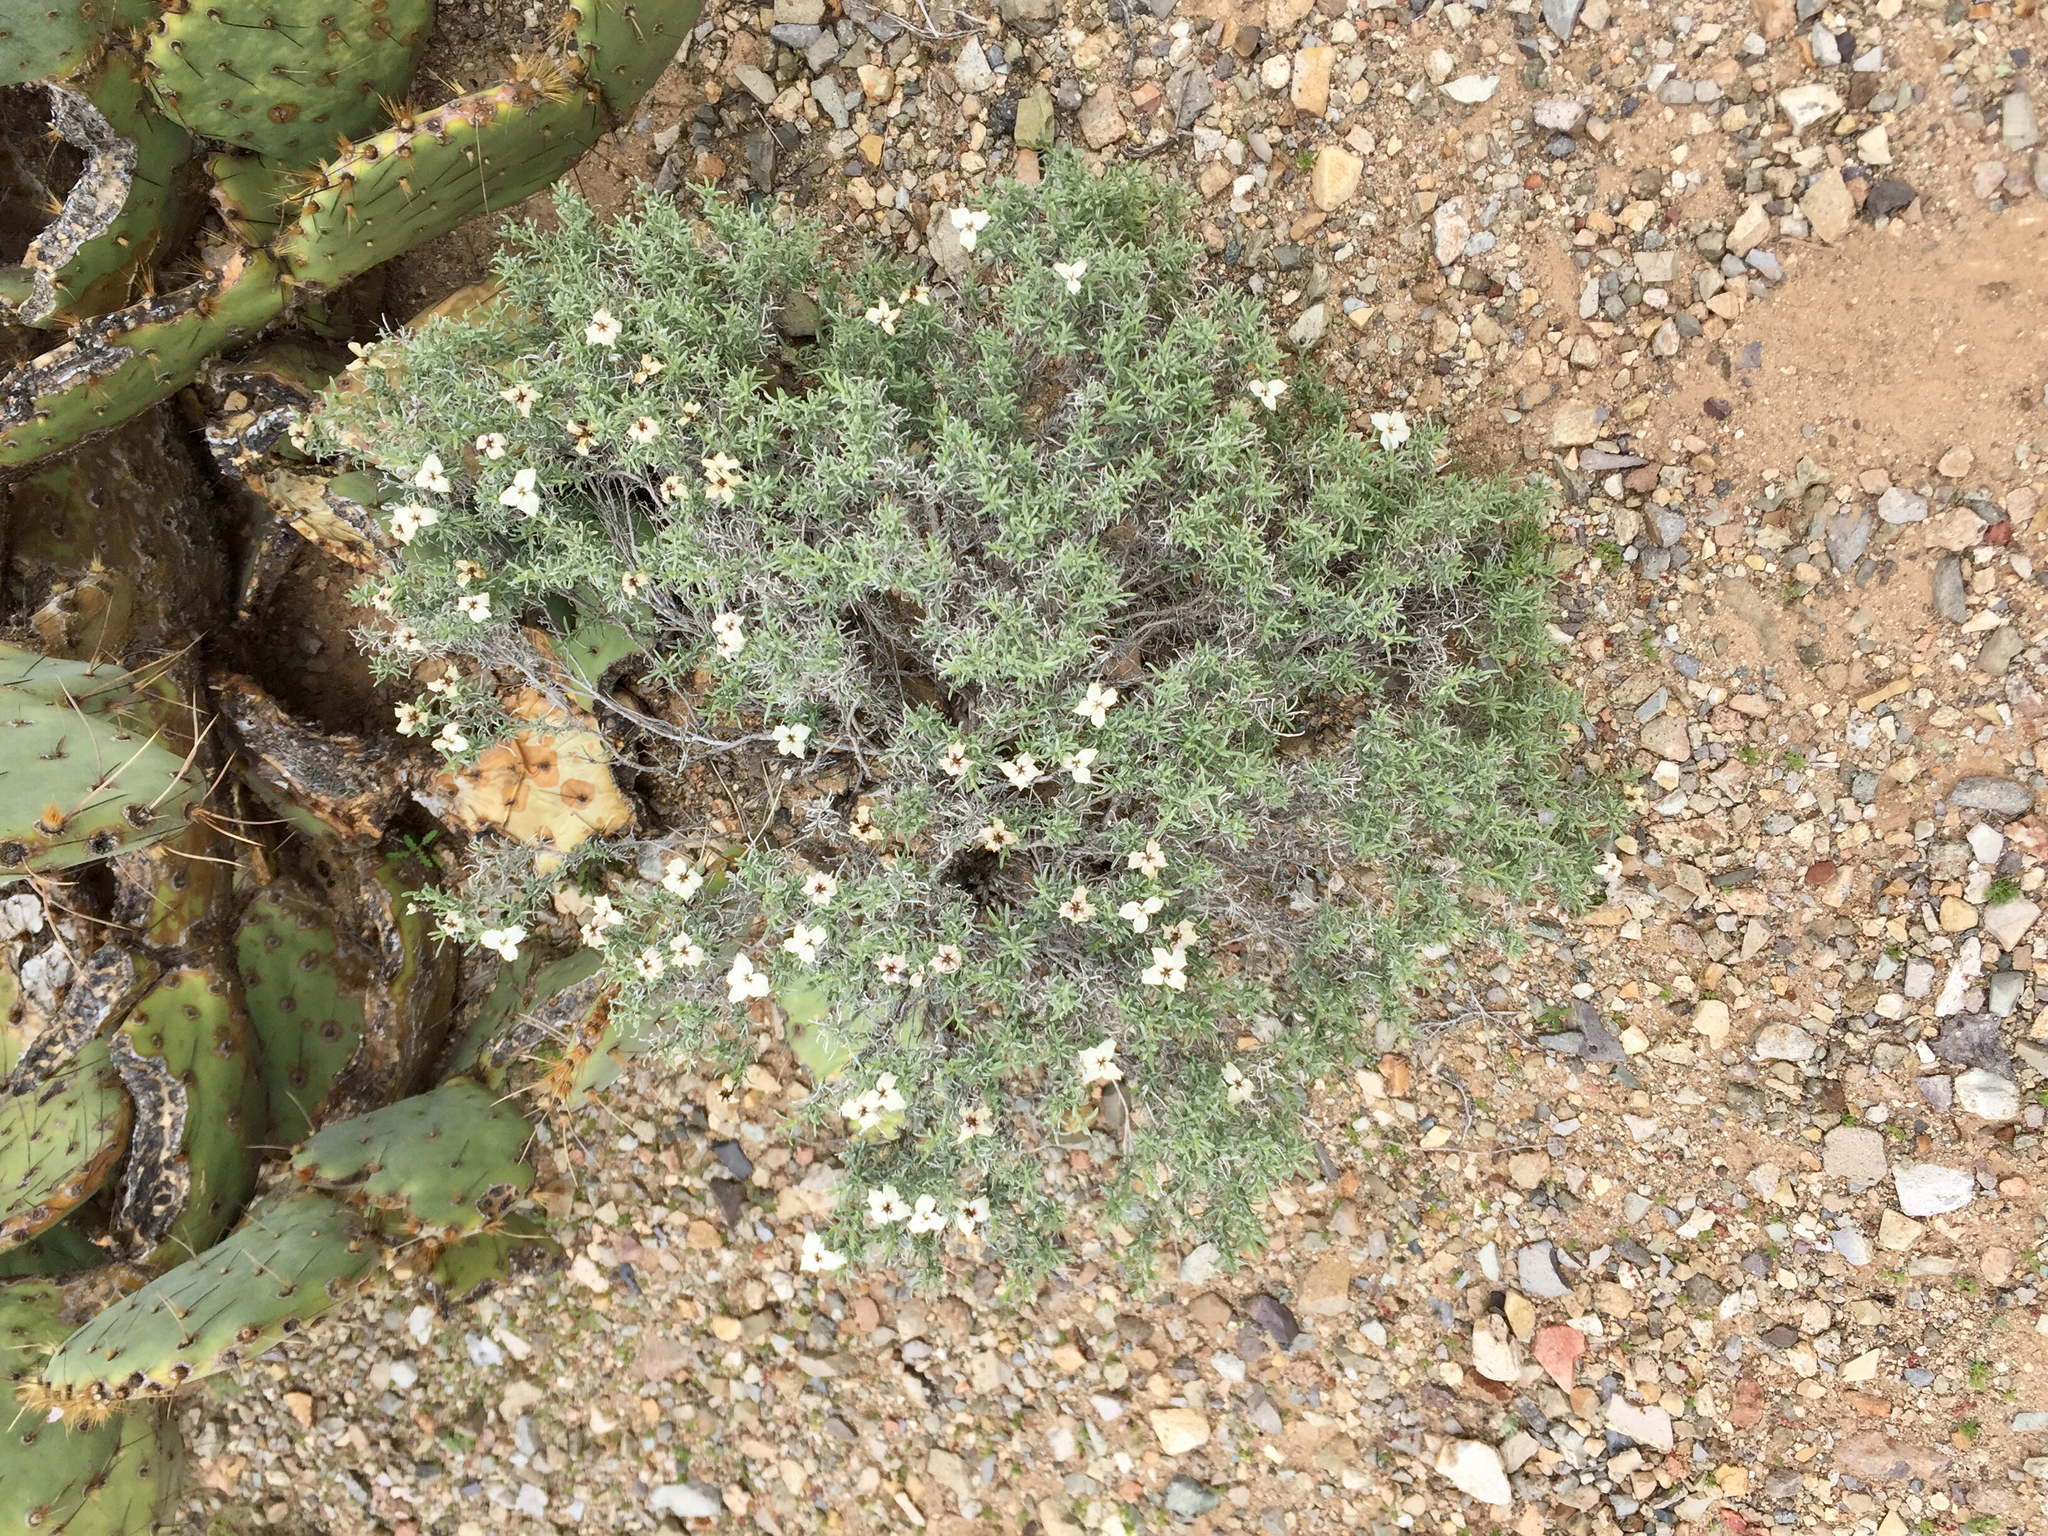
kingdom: Plantae
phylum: Tracheophyta
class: Magnoliopsida
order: Asterales
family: Asteraceae
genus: Zinnia
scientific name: Zinnia acerosa
